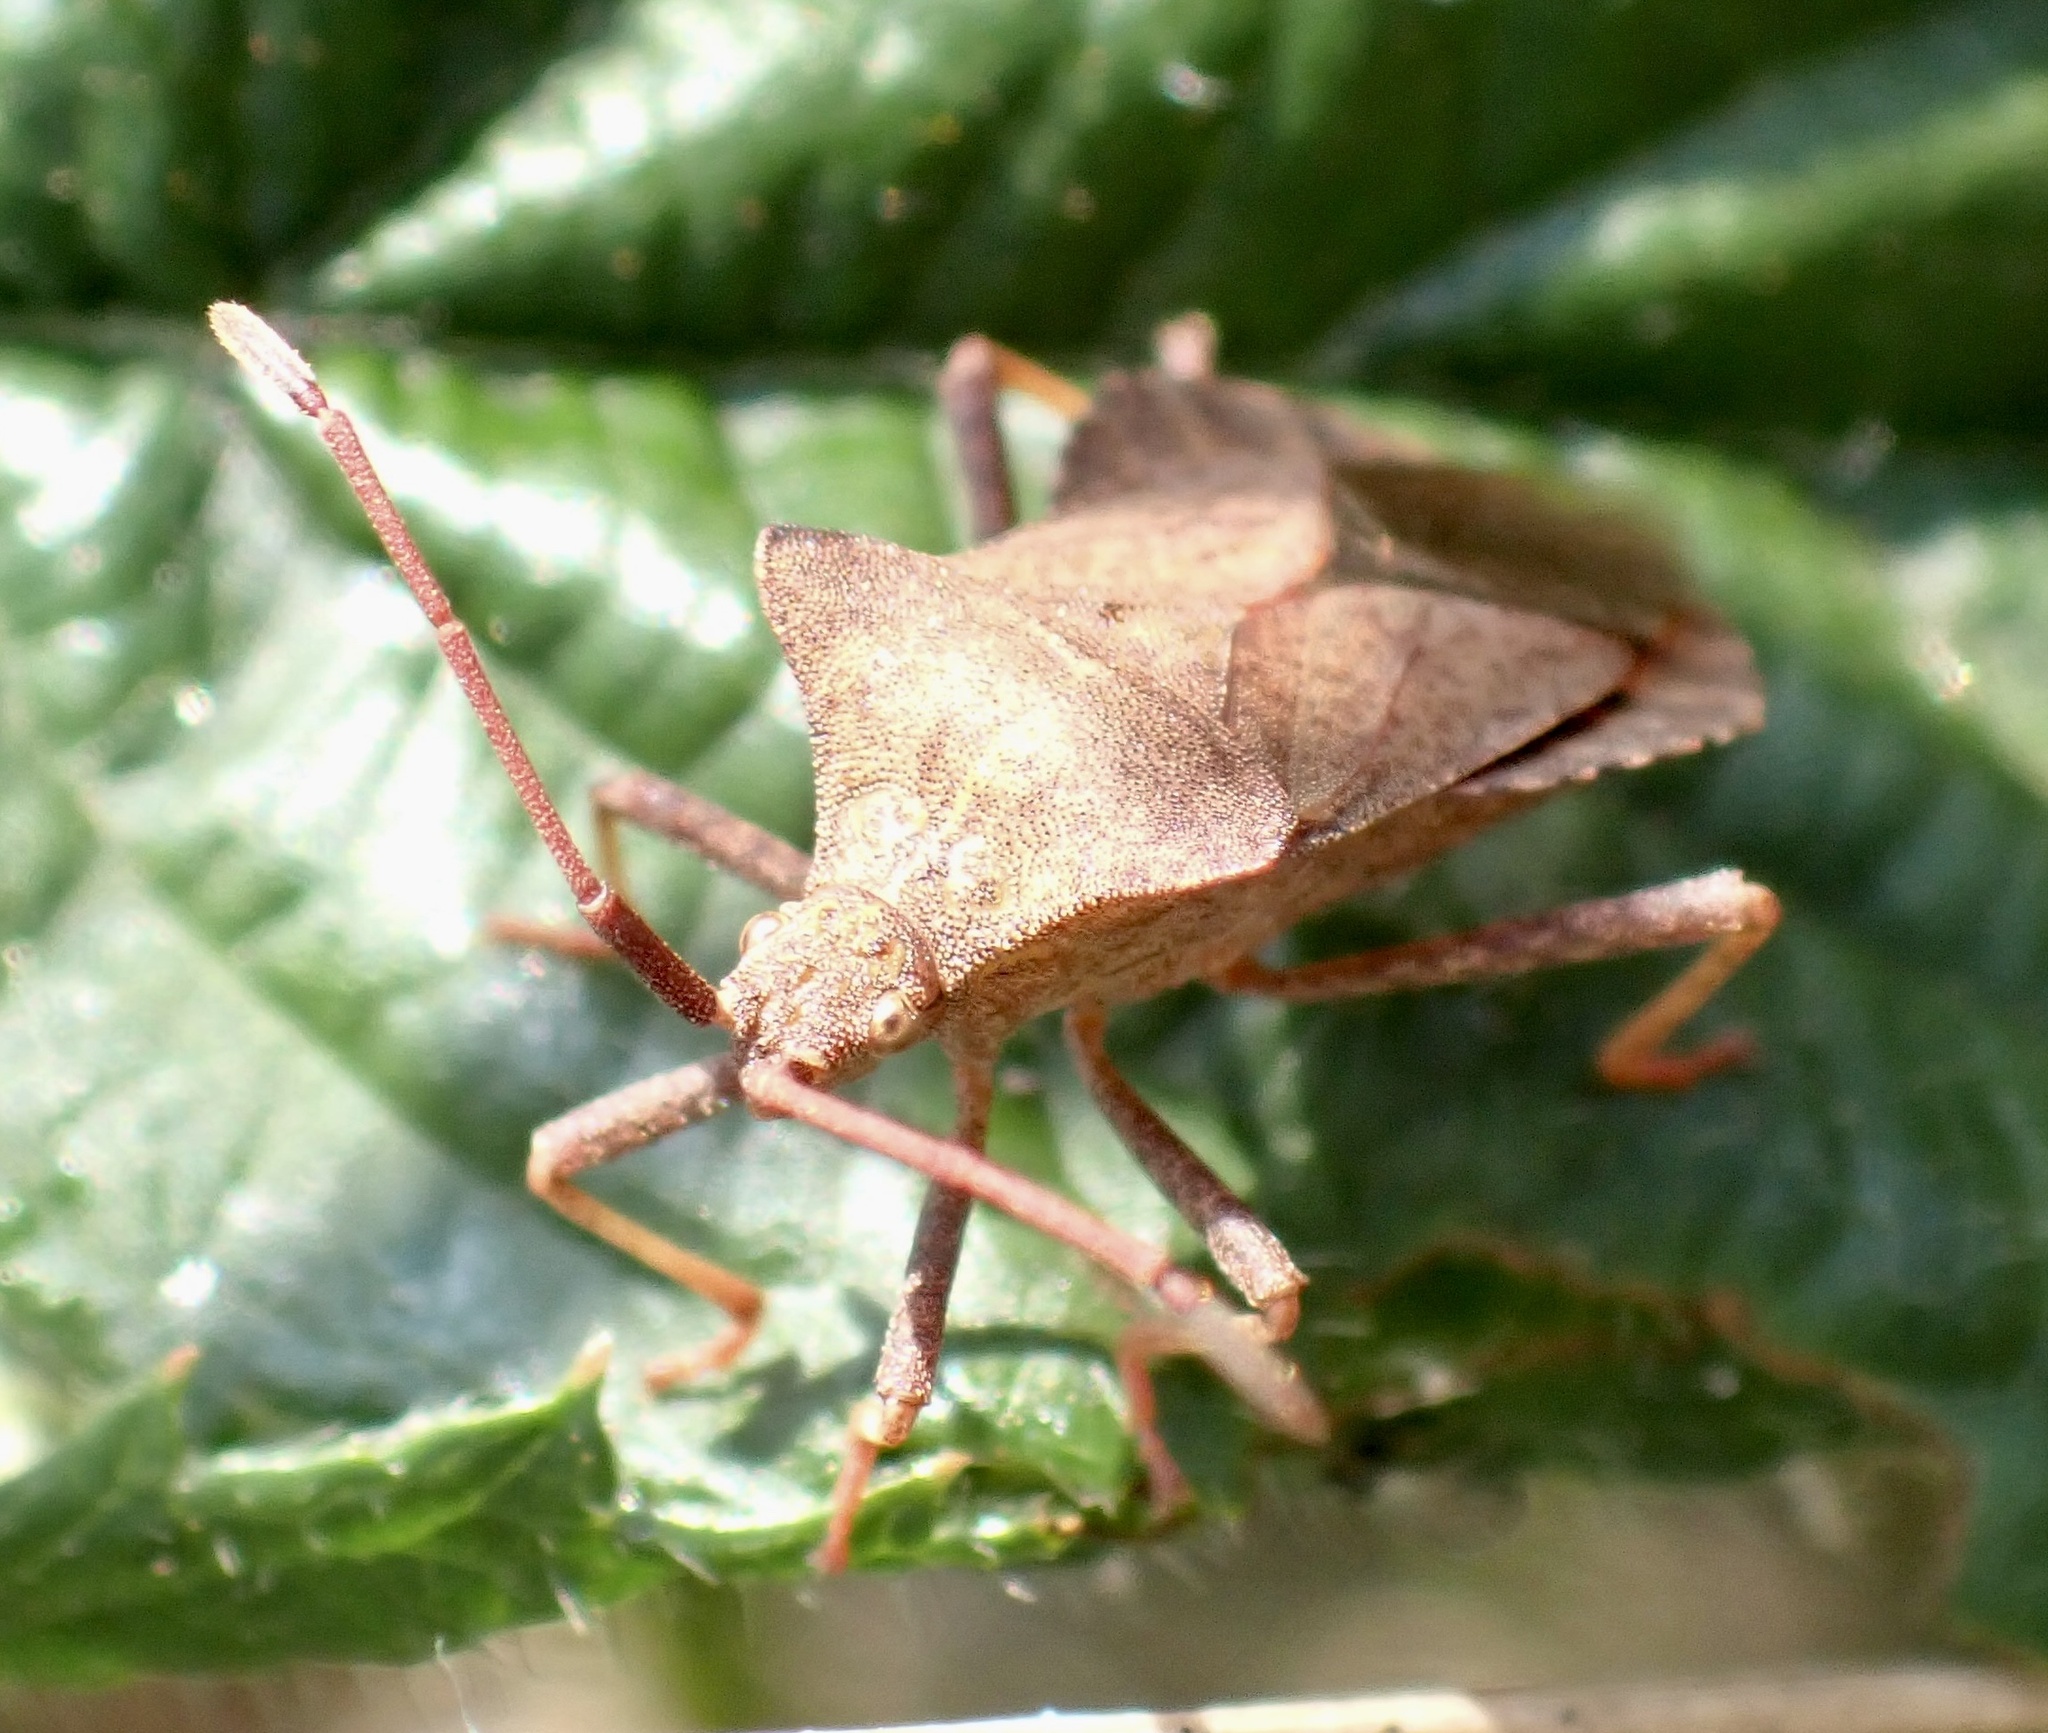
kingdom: Animalia
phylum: Arthropoda
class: Insecta
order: Hemiptera
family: Coreidae
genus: Coreus
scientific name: Coreus marginatus
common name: Dock bug
